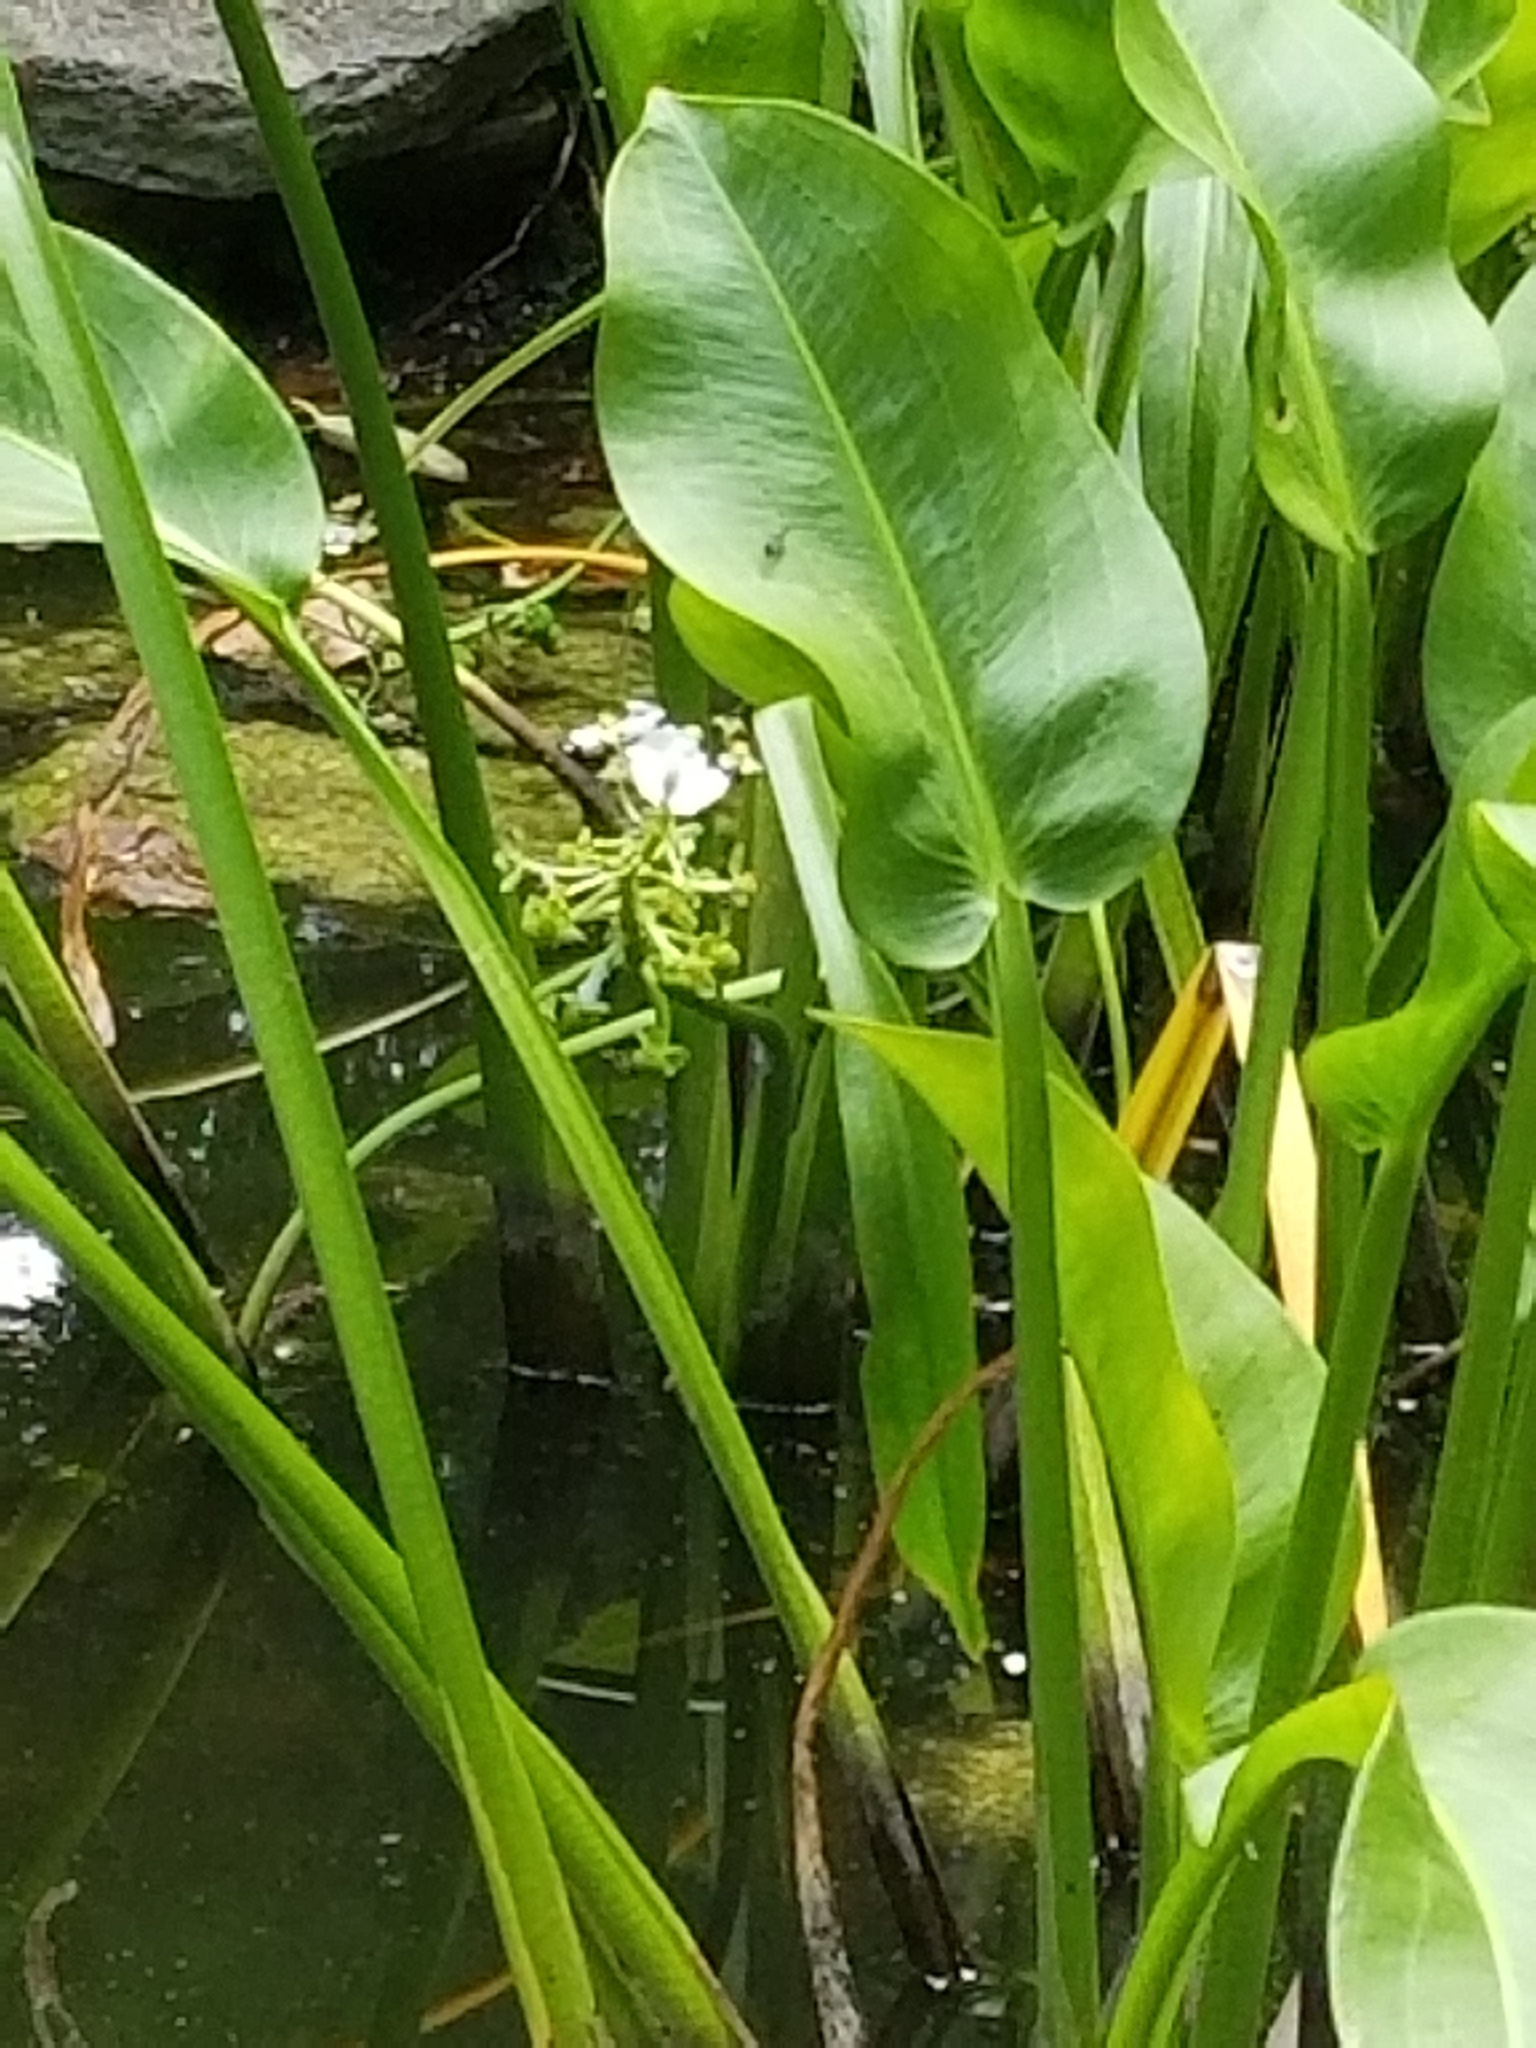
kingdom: Plantae
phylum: Tracheophyta
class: Liliopsida
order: Alismatales
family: Alismataceae
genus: Sagittaria
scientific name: Sagittaria platyphylla
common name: Broad-leaf arrowhead
